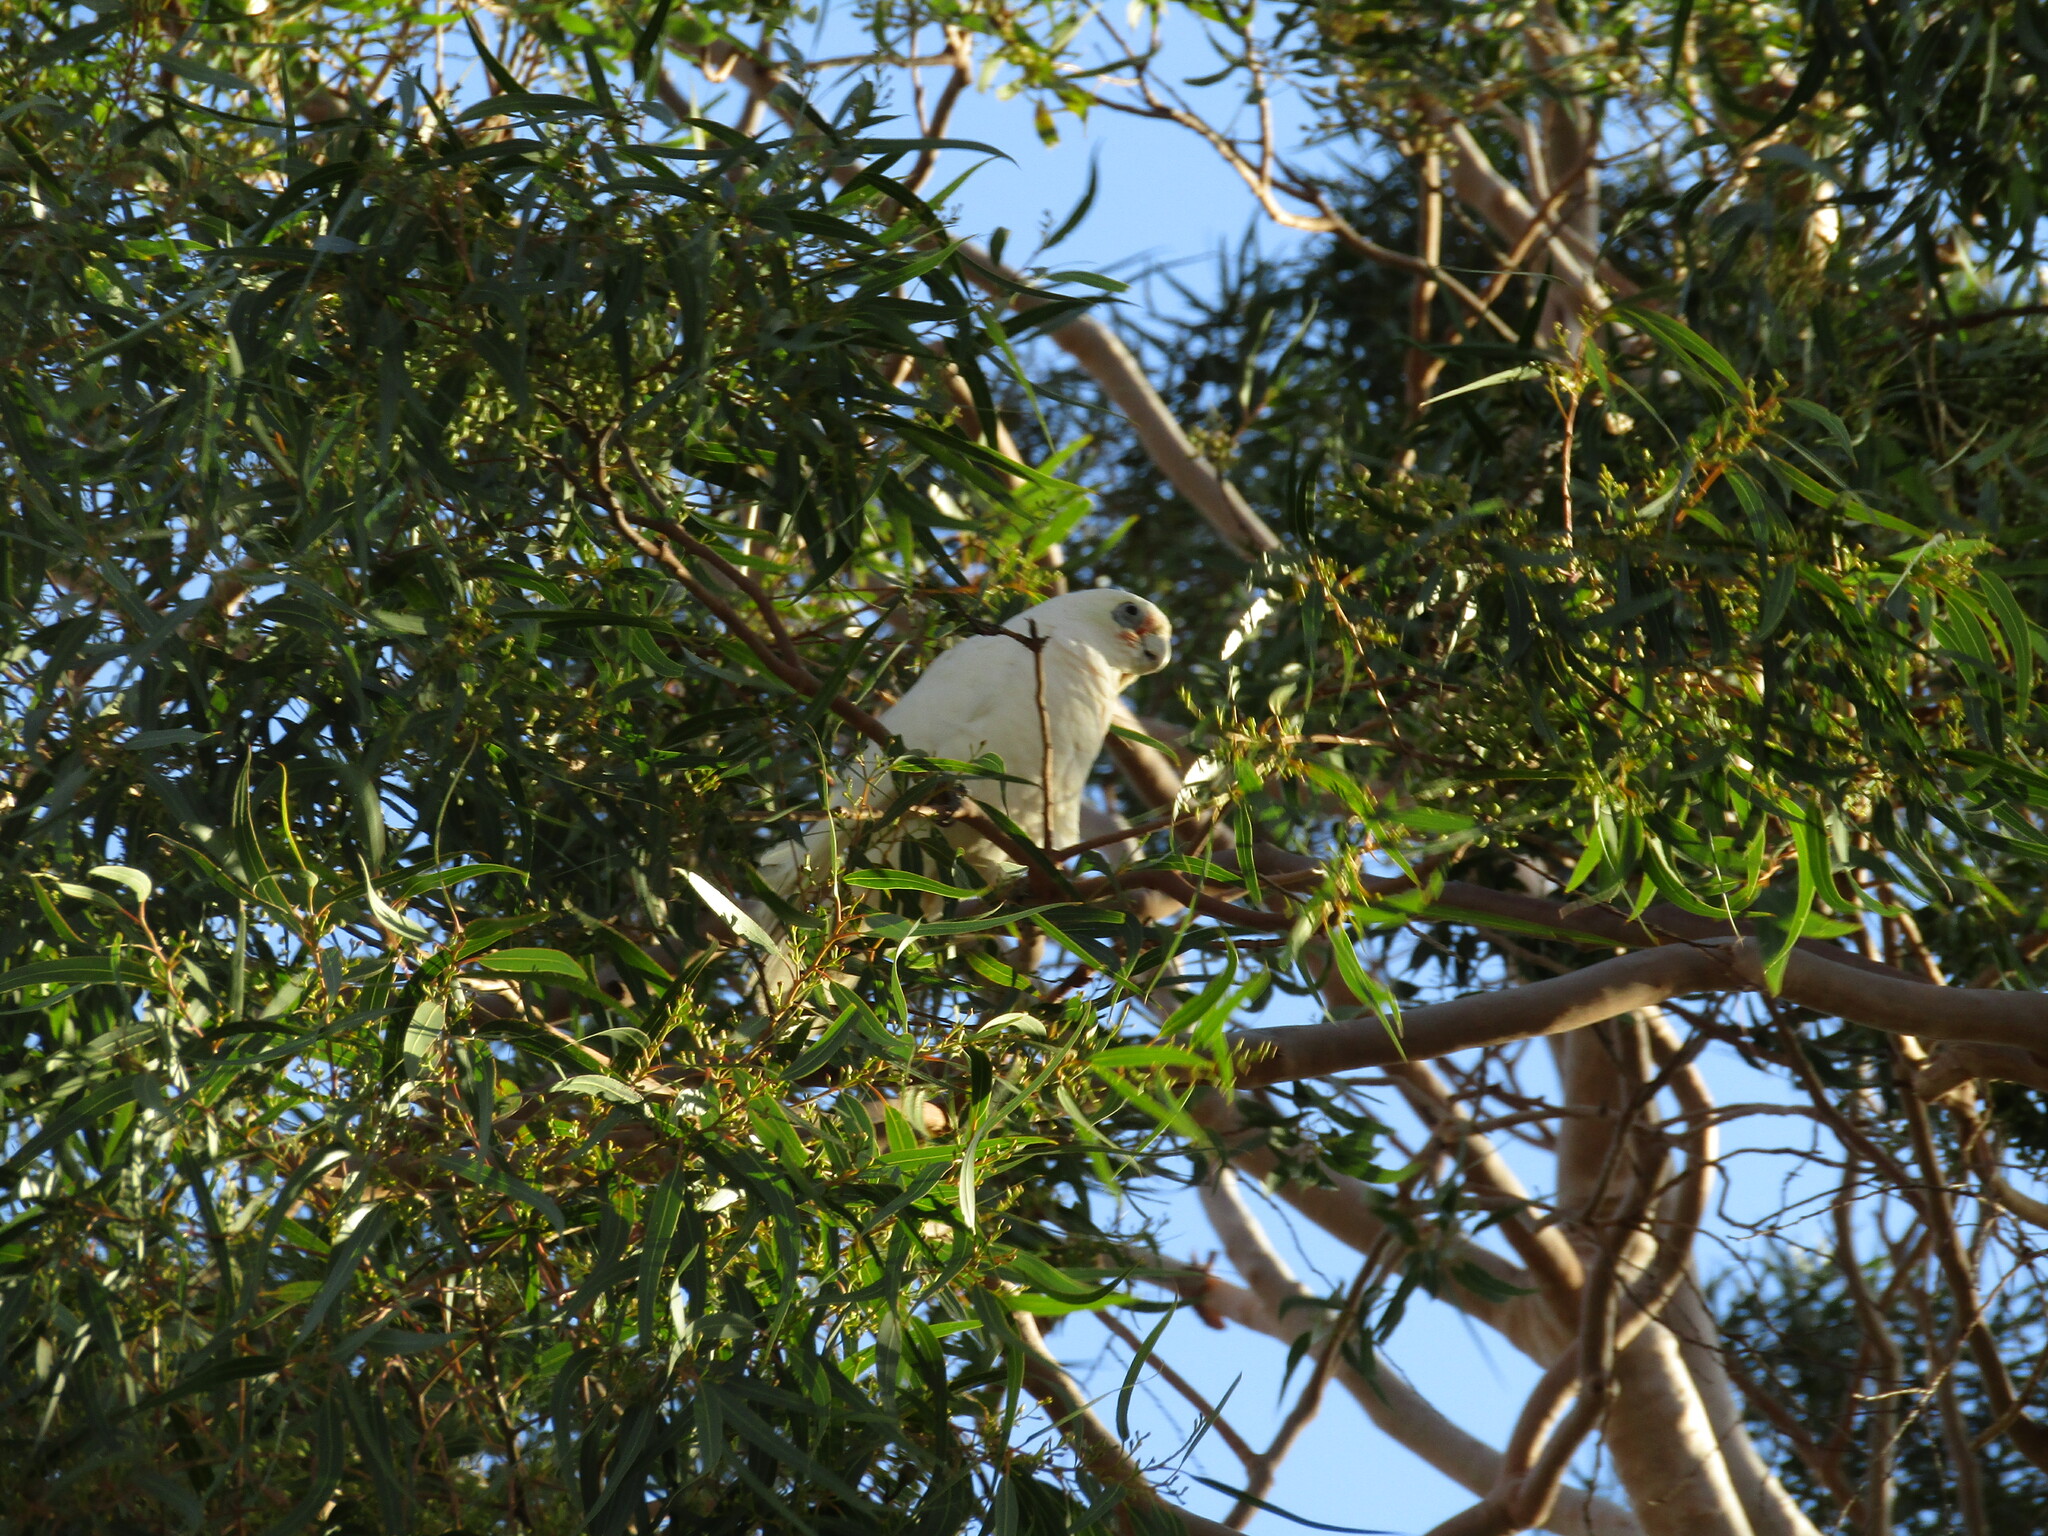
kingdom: Animalia
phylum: Chordata
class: Aves
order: Psittaciformes
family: Psittacidae
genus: Cacatua
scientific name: Cacatua sanguinea
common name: Little corella
